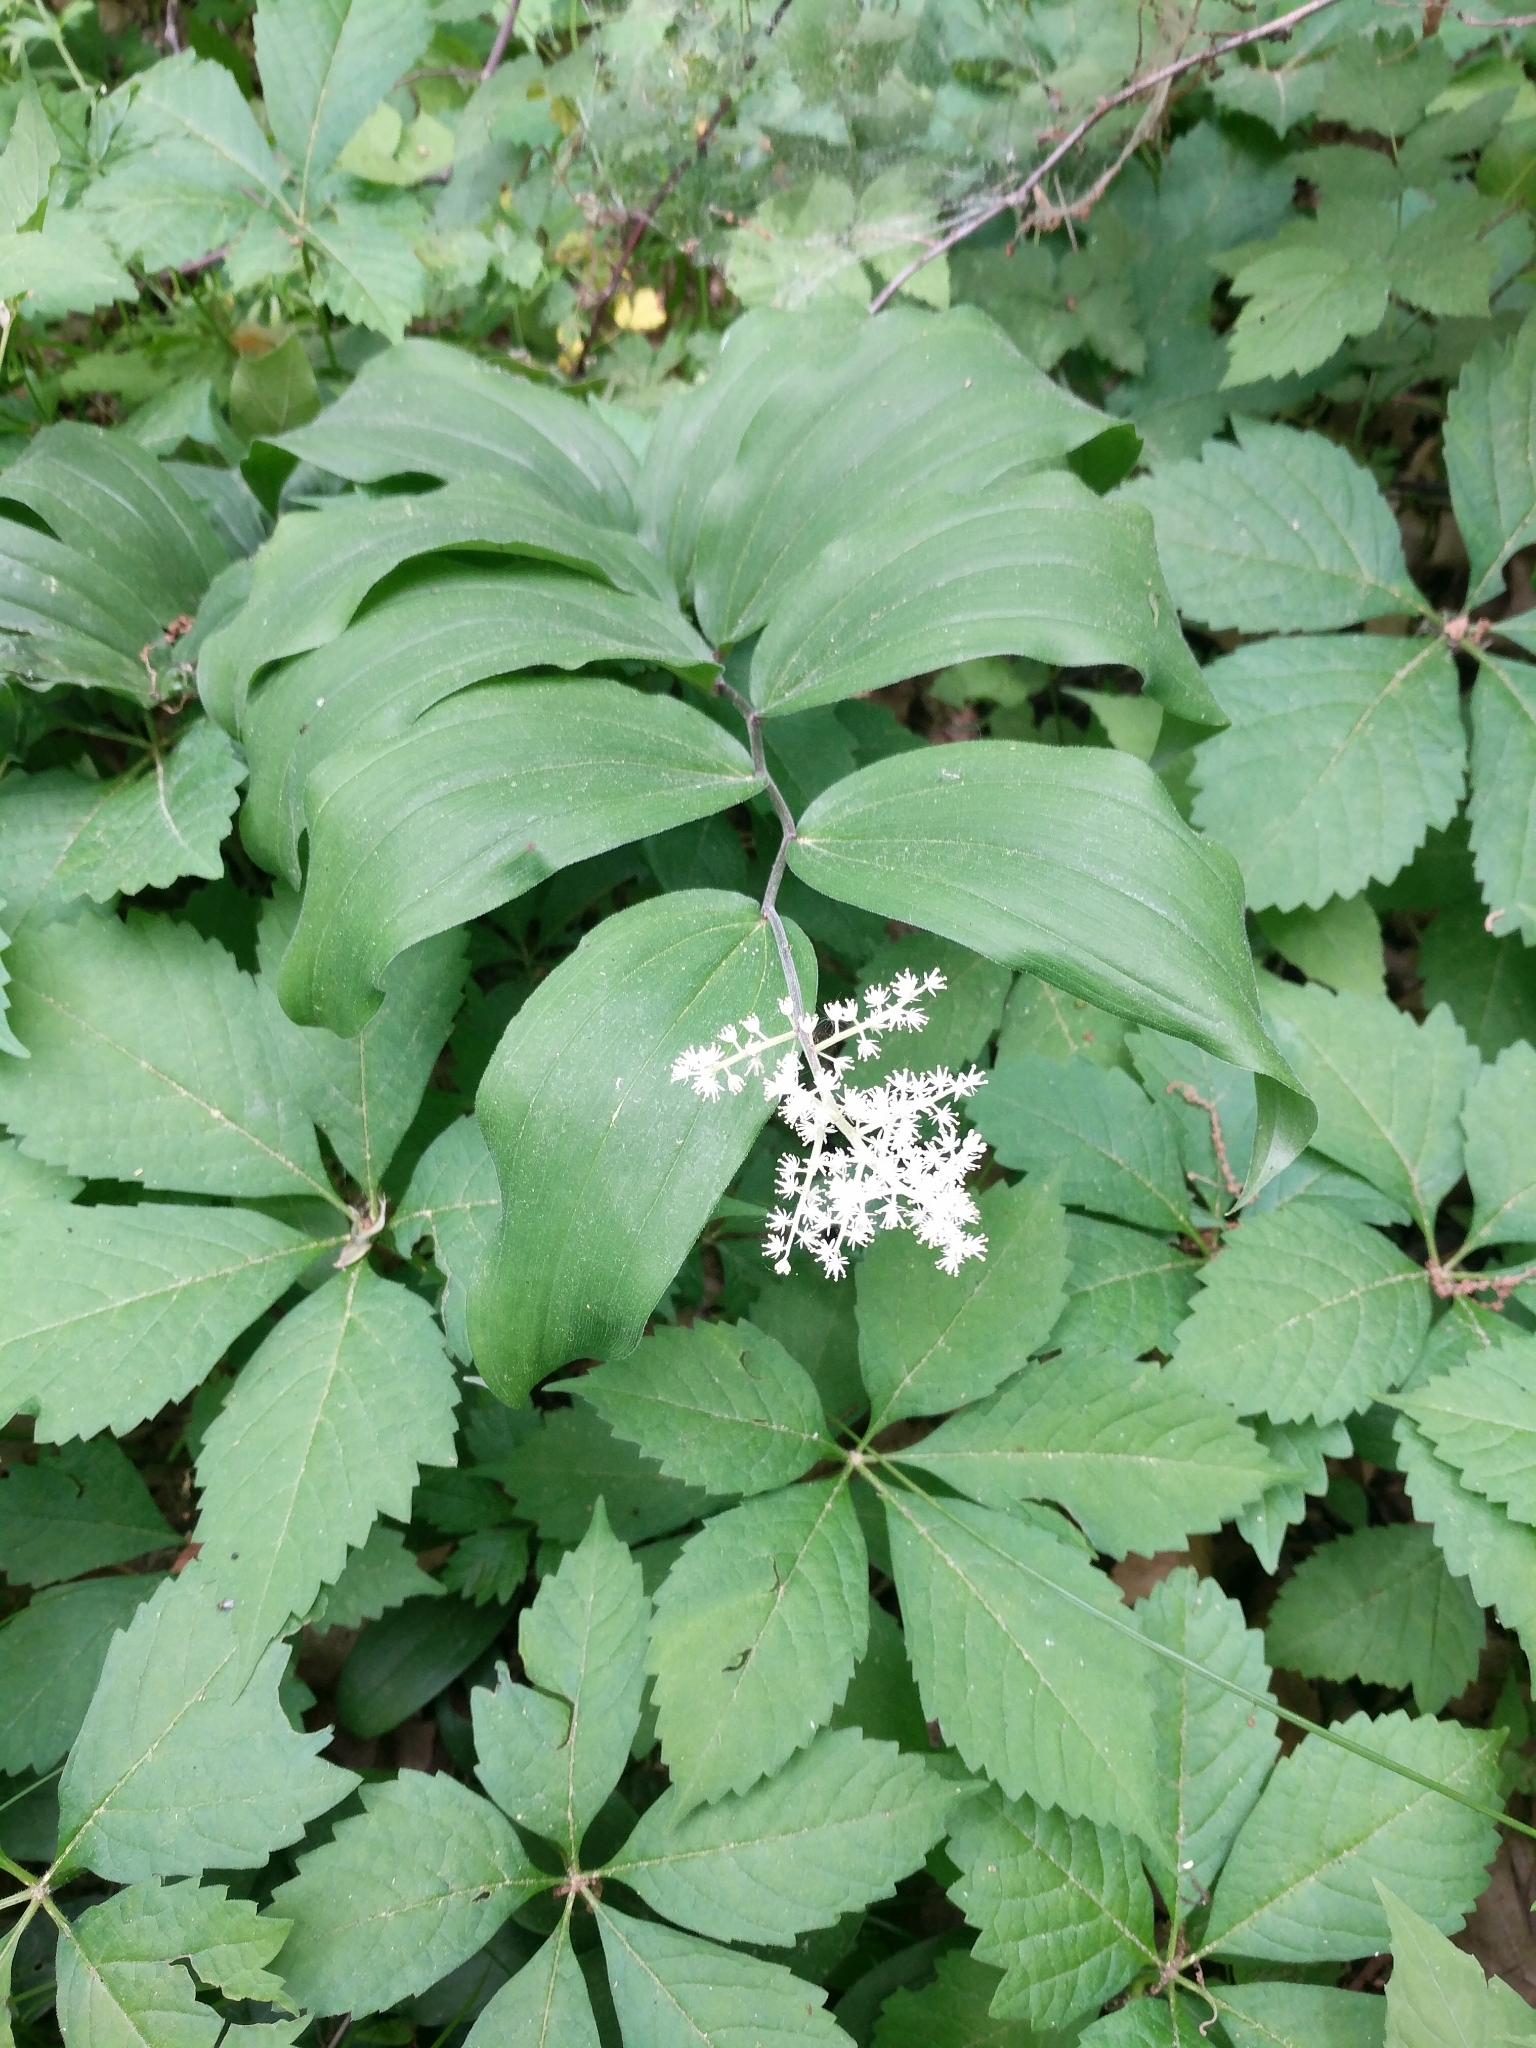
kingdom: Plantae
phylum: Tracheophyta
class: Liliopsida
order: Asparagales
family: Asparagaceae
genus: Maianthemum
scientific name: Maianthemum racemosum
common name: False spikenard
